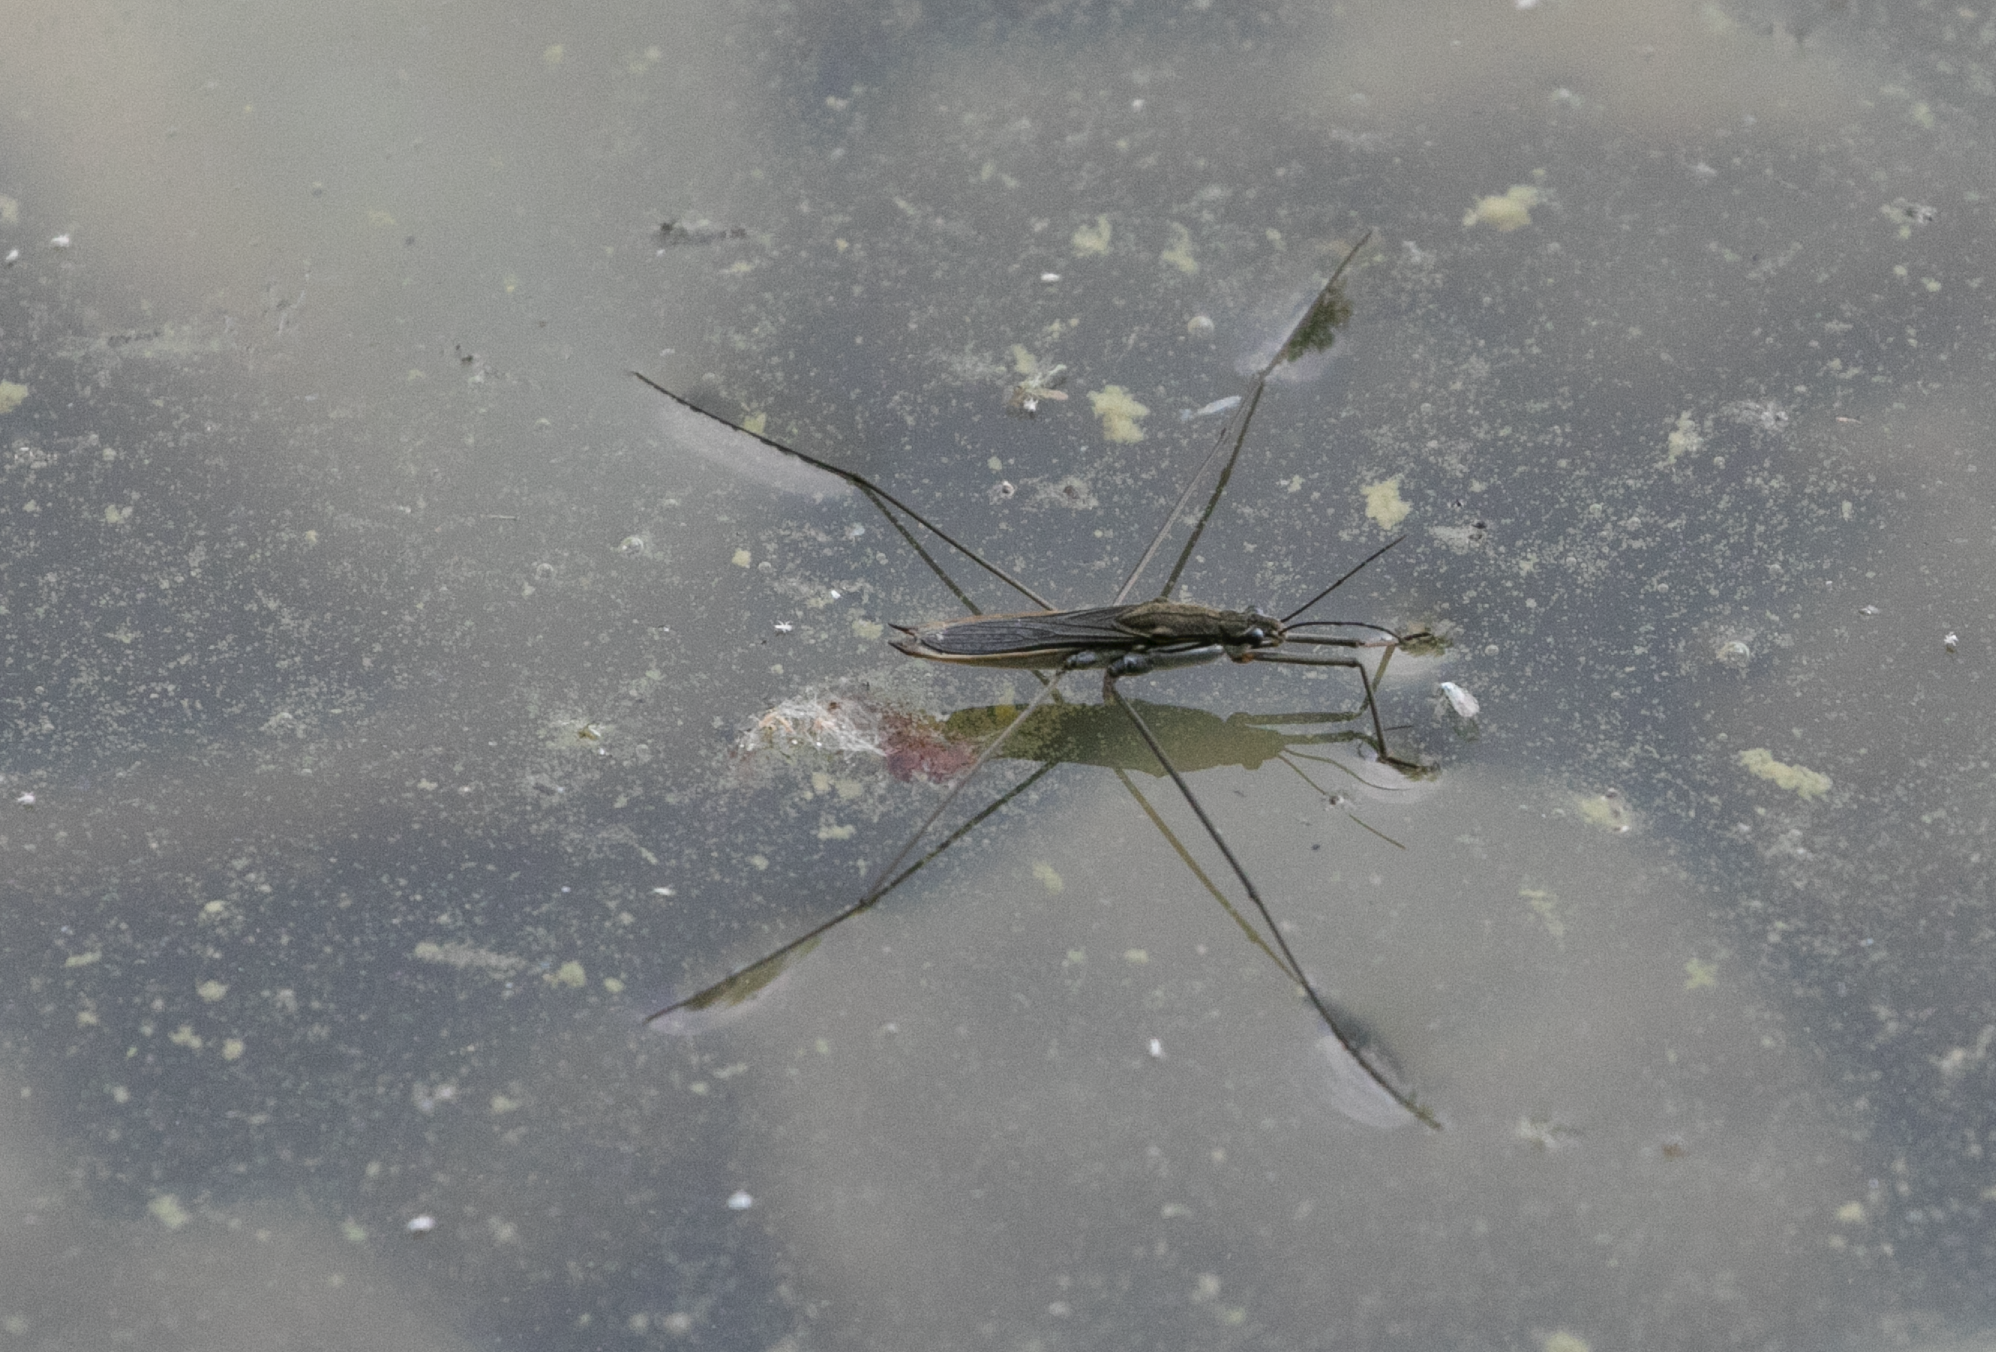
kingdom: Animalia
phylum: Arthropoda
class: Insecta
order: Hemiptera
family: Gerridae
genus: Aquarius
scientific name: Aquarius paludum
